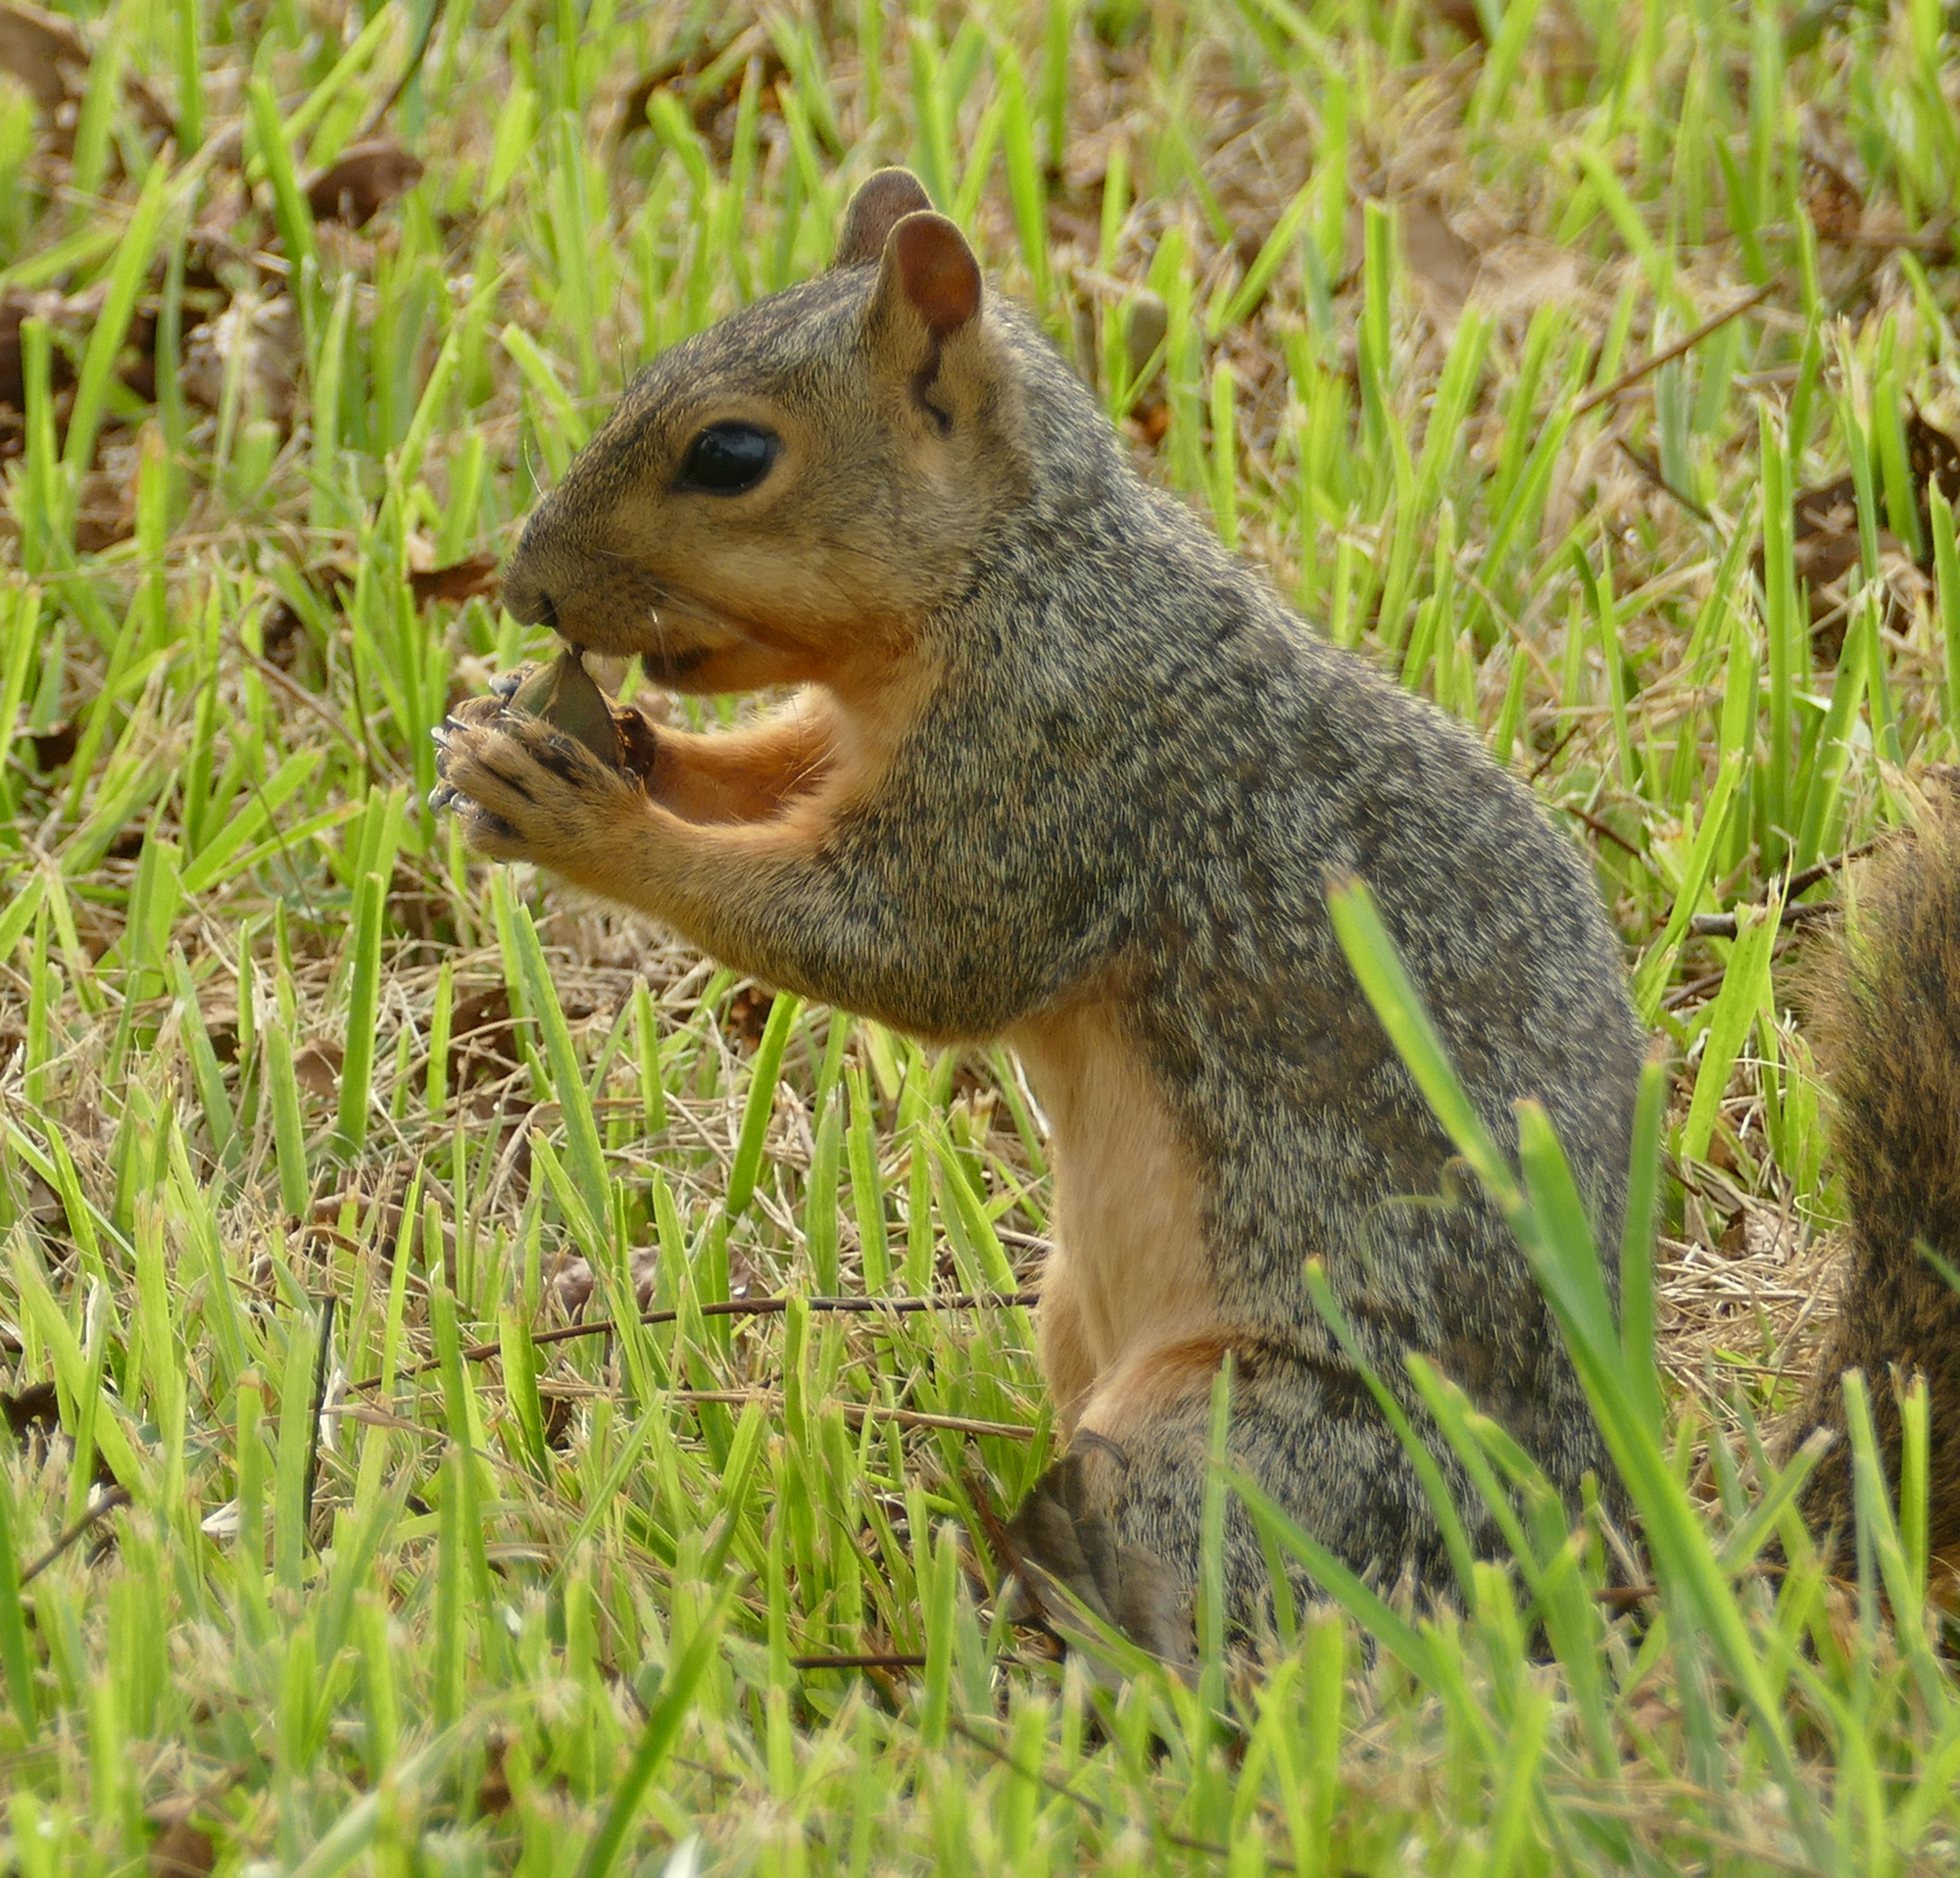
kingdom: Animalia
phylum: Chordata
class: Mammalia
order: Rodentia
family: Sciuridae
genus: Sciurus
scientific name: Sciurus niger
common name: Fox squirrel
